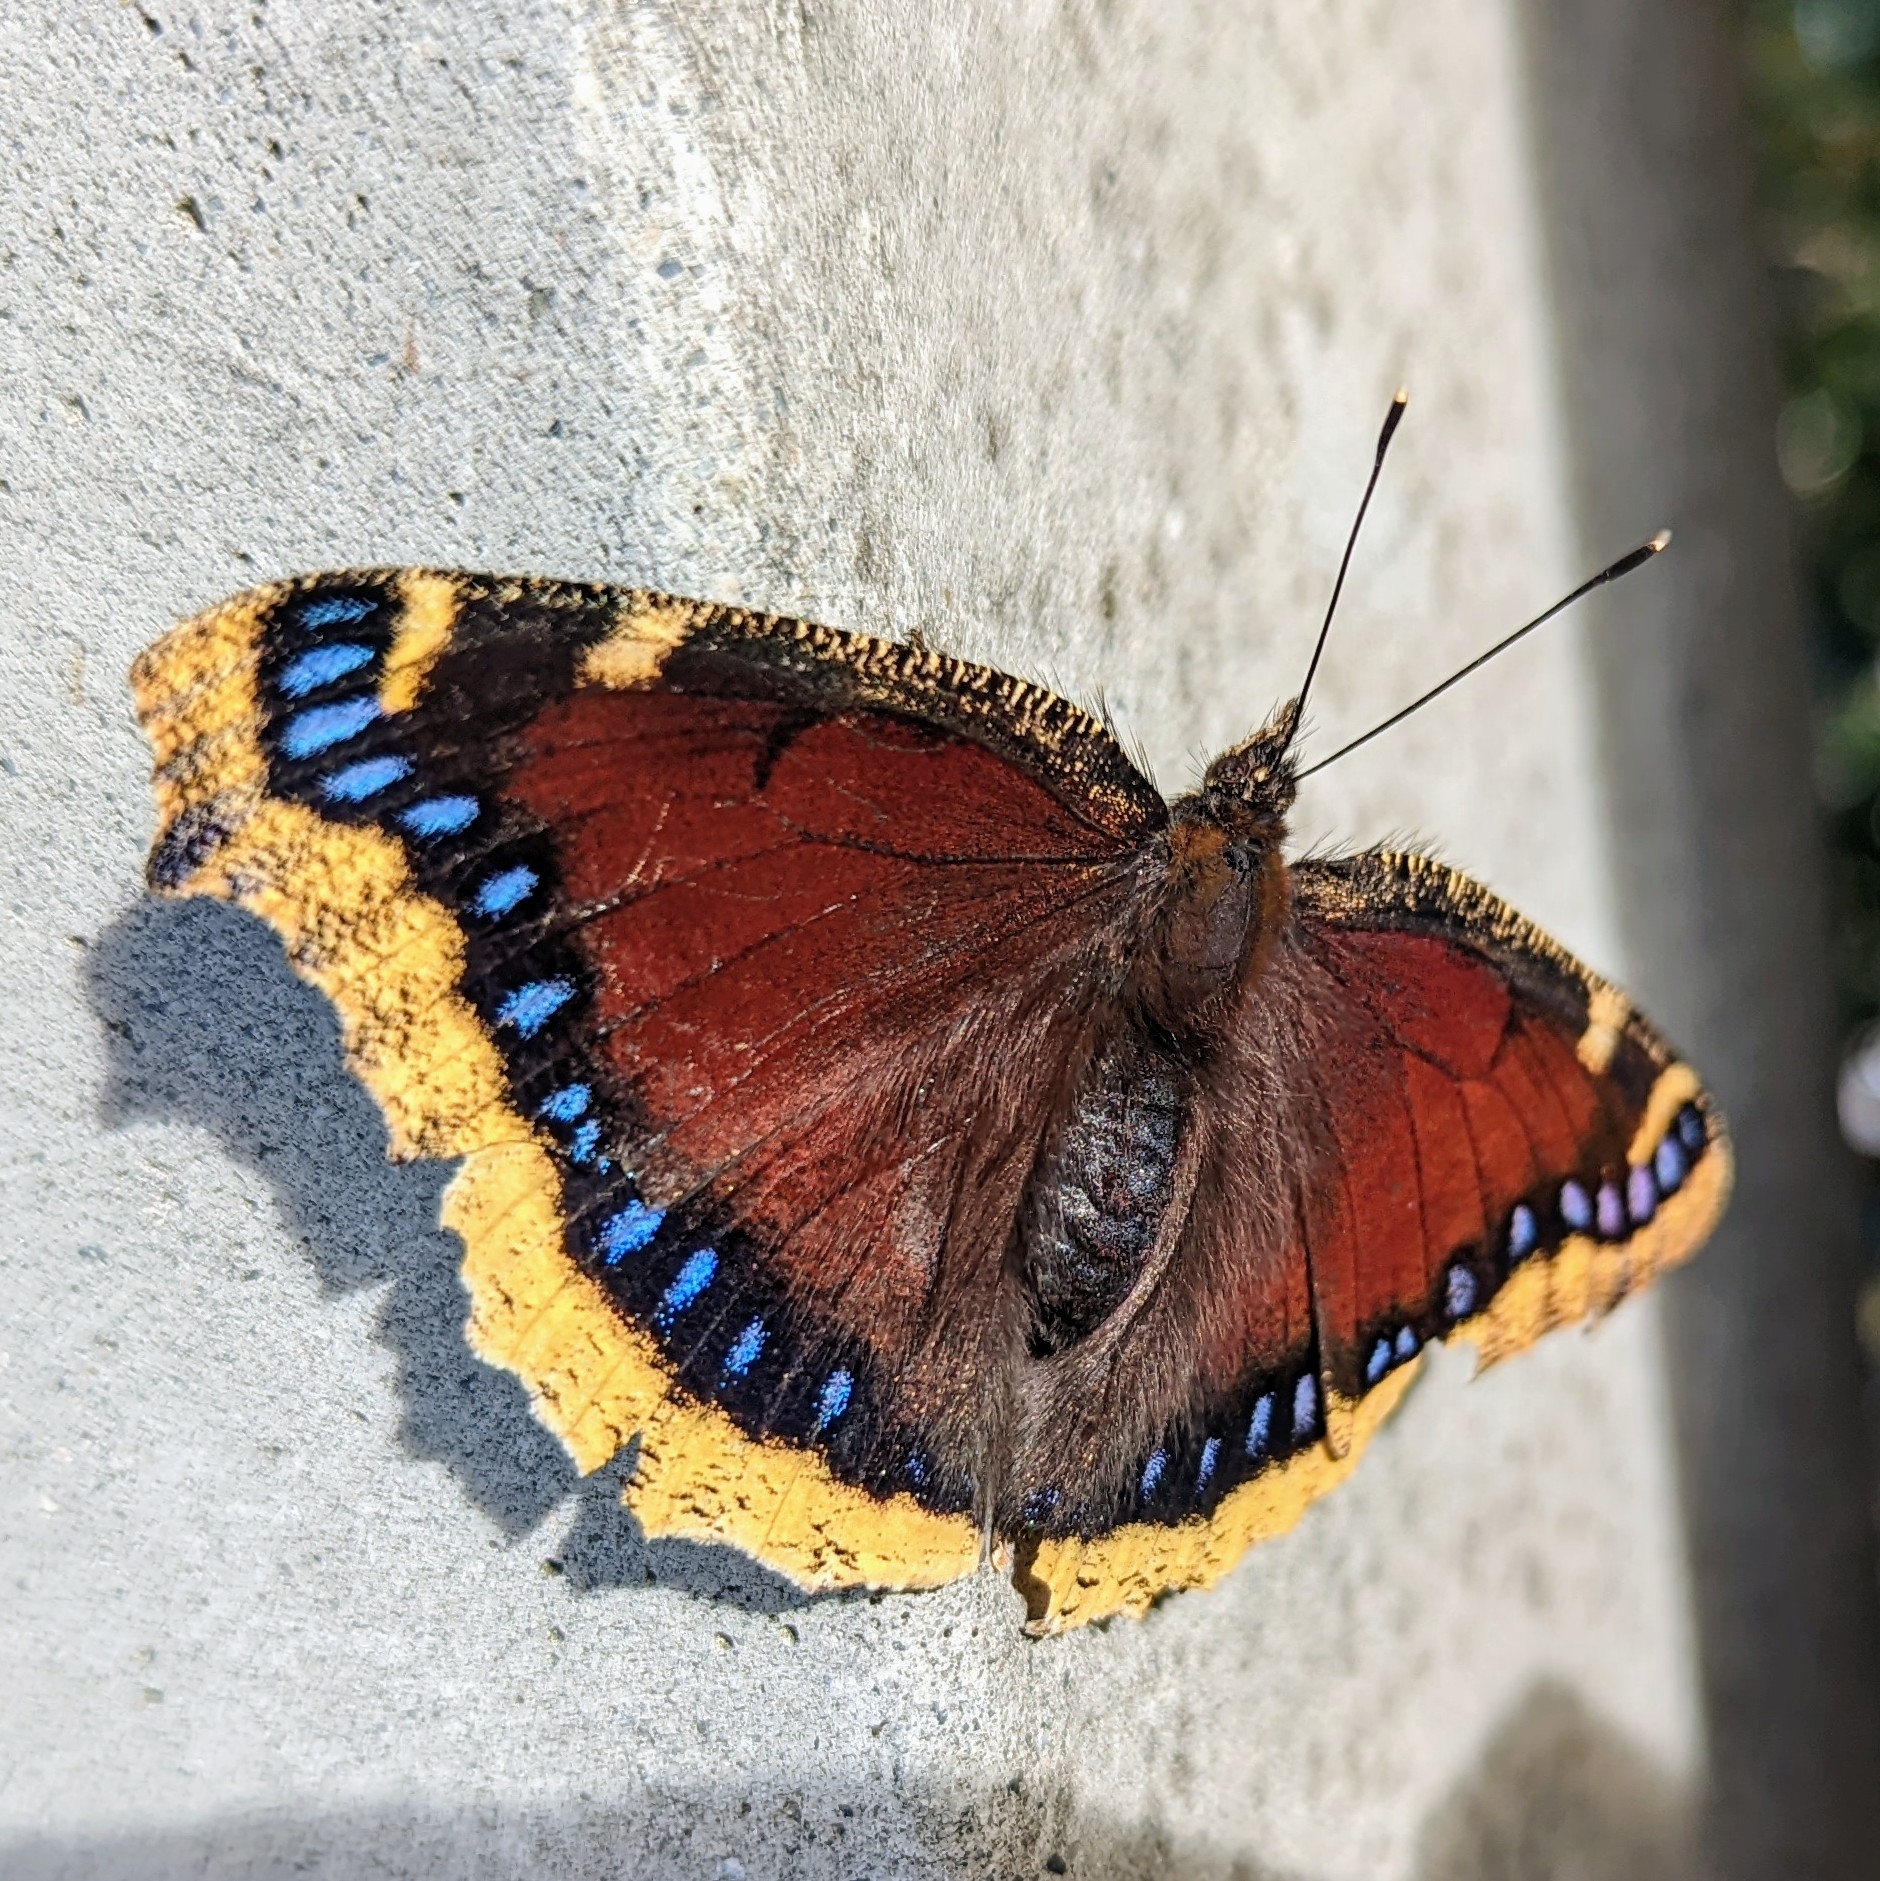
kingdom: Animalia
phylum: Arthropoda
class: Insecta
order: Lepidoptera
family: Nymphalidae
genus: Nymphalis
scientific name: Nymphalis antiopa
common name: Camberwell beauty
